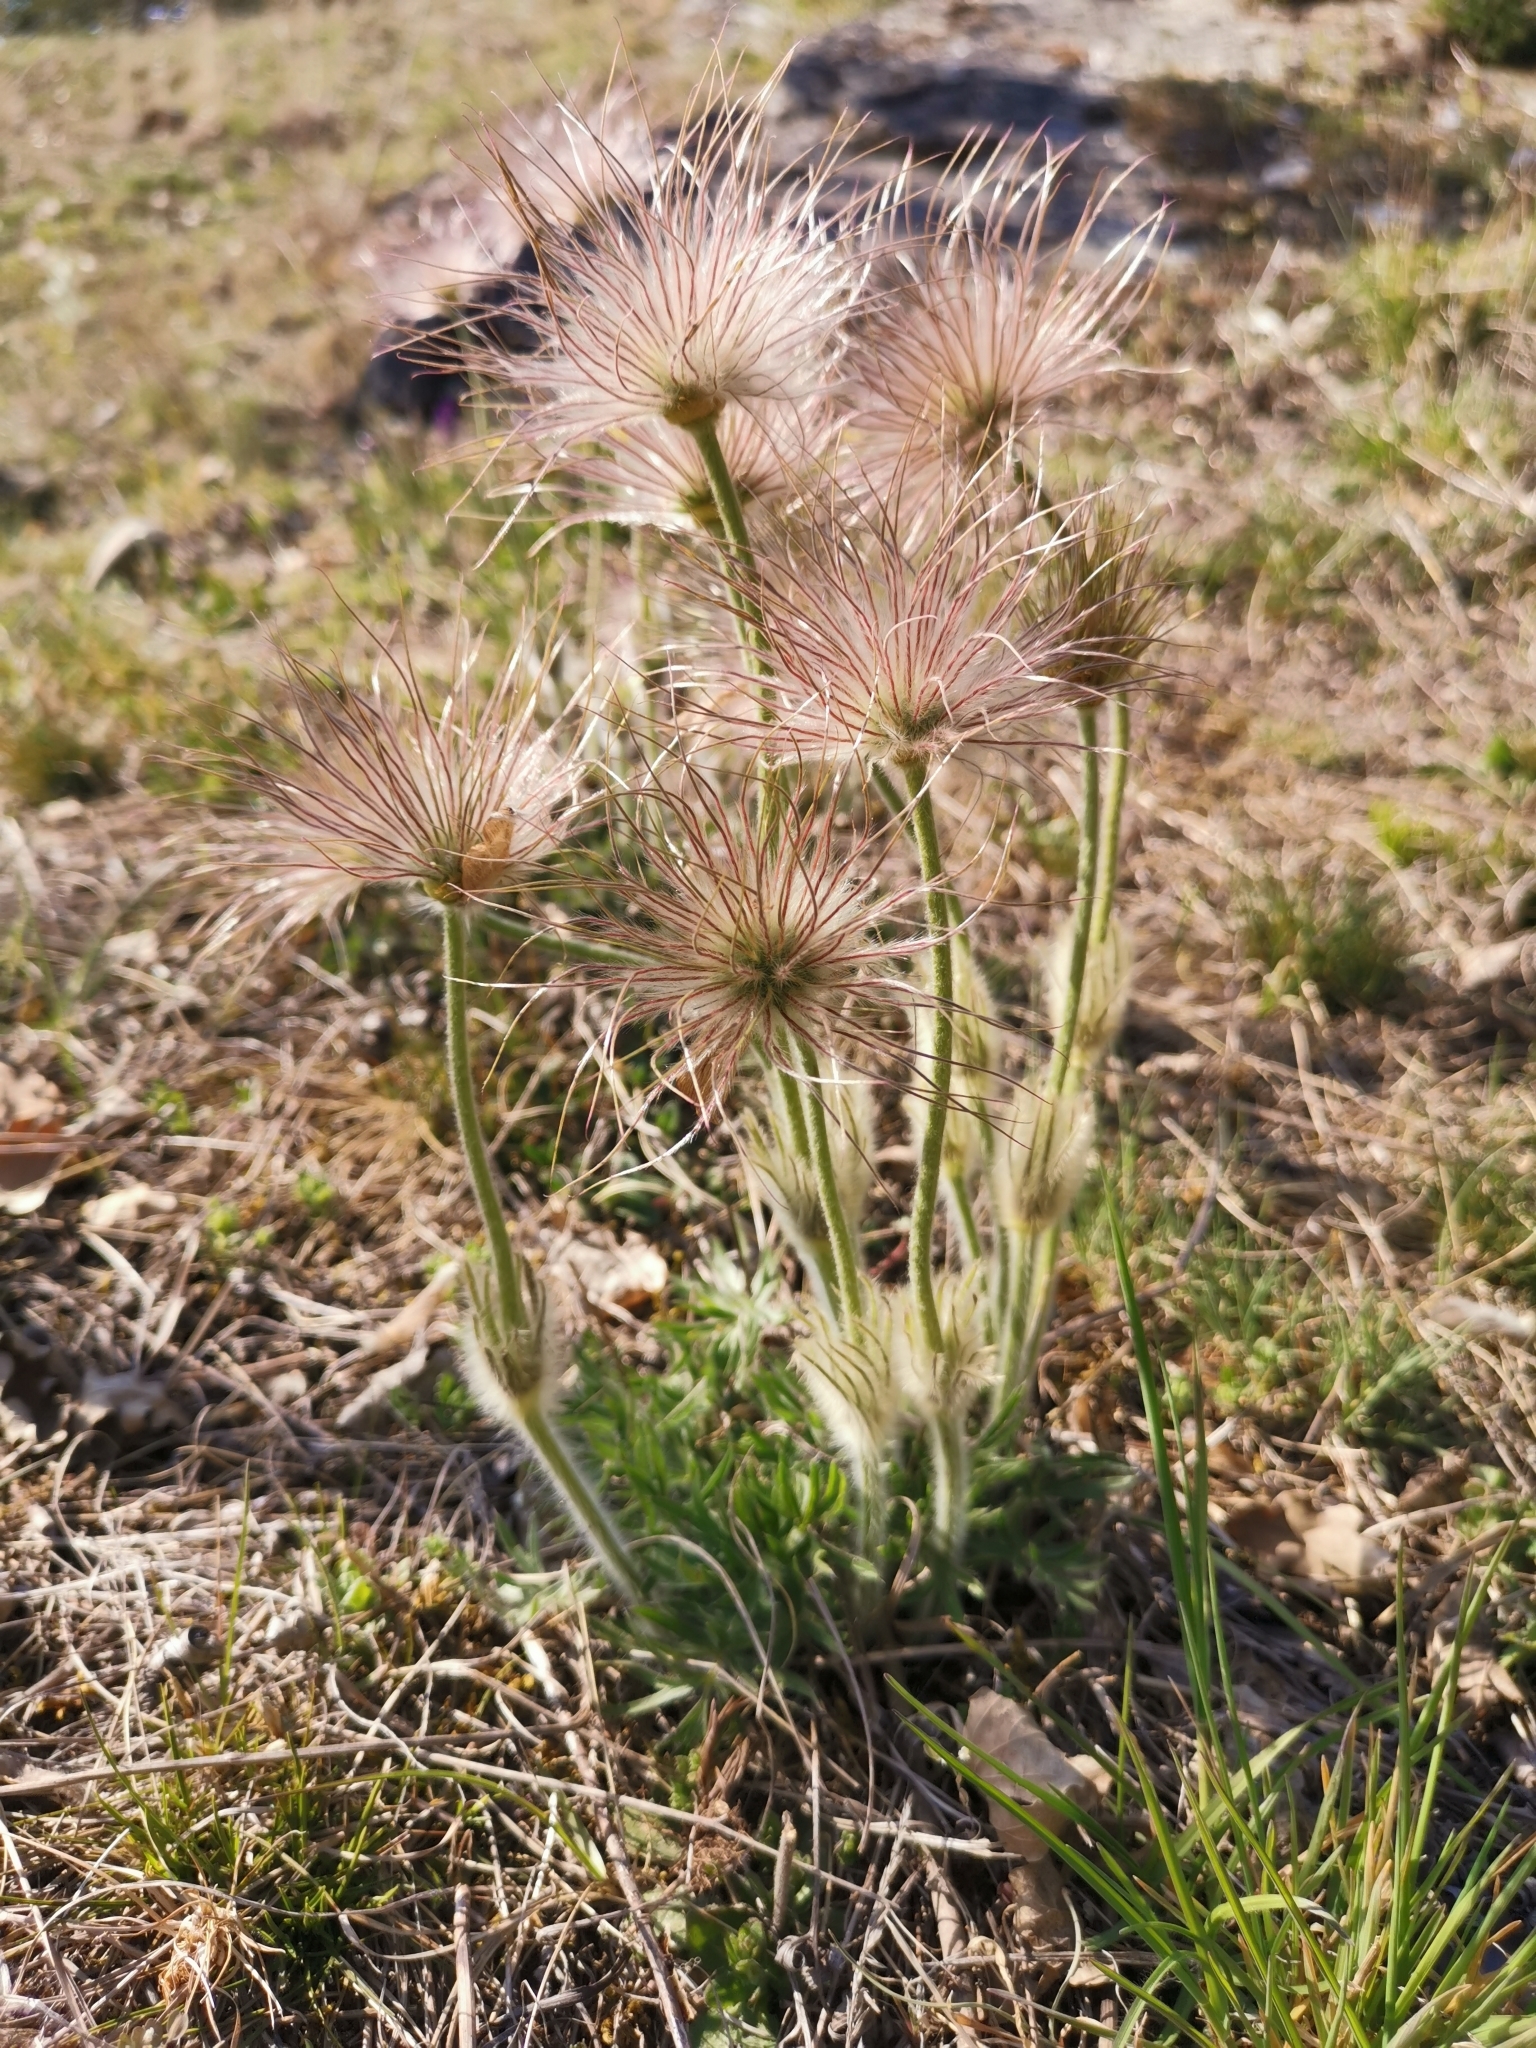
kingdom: Plantae
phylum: Tracheophyta
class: Magnoliopsida
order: Ranunculales
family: Ranunculaceae
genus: Pulsatilla
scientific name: Pulsatilla grandis
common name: Greater pasque flower
